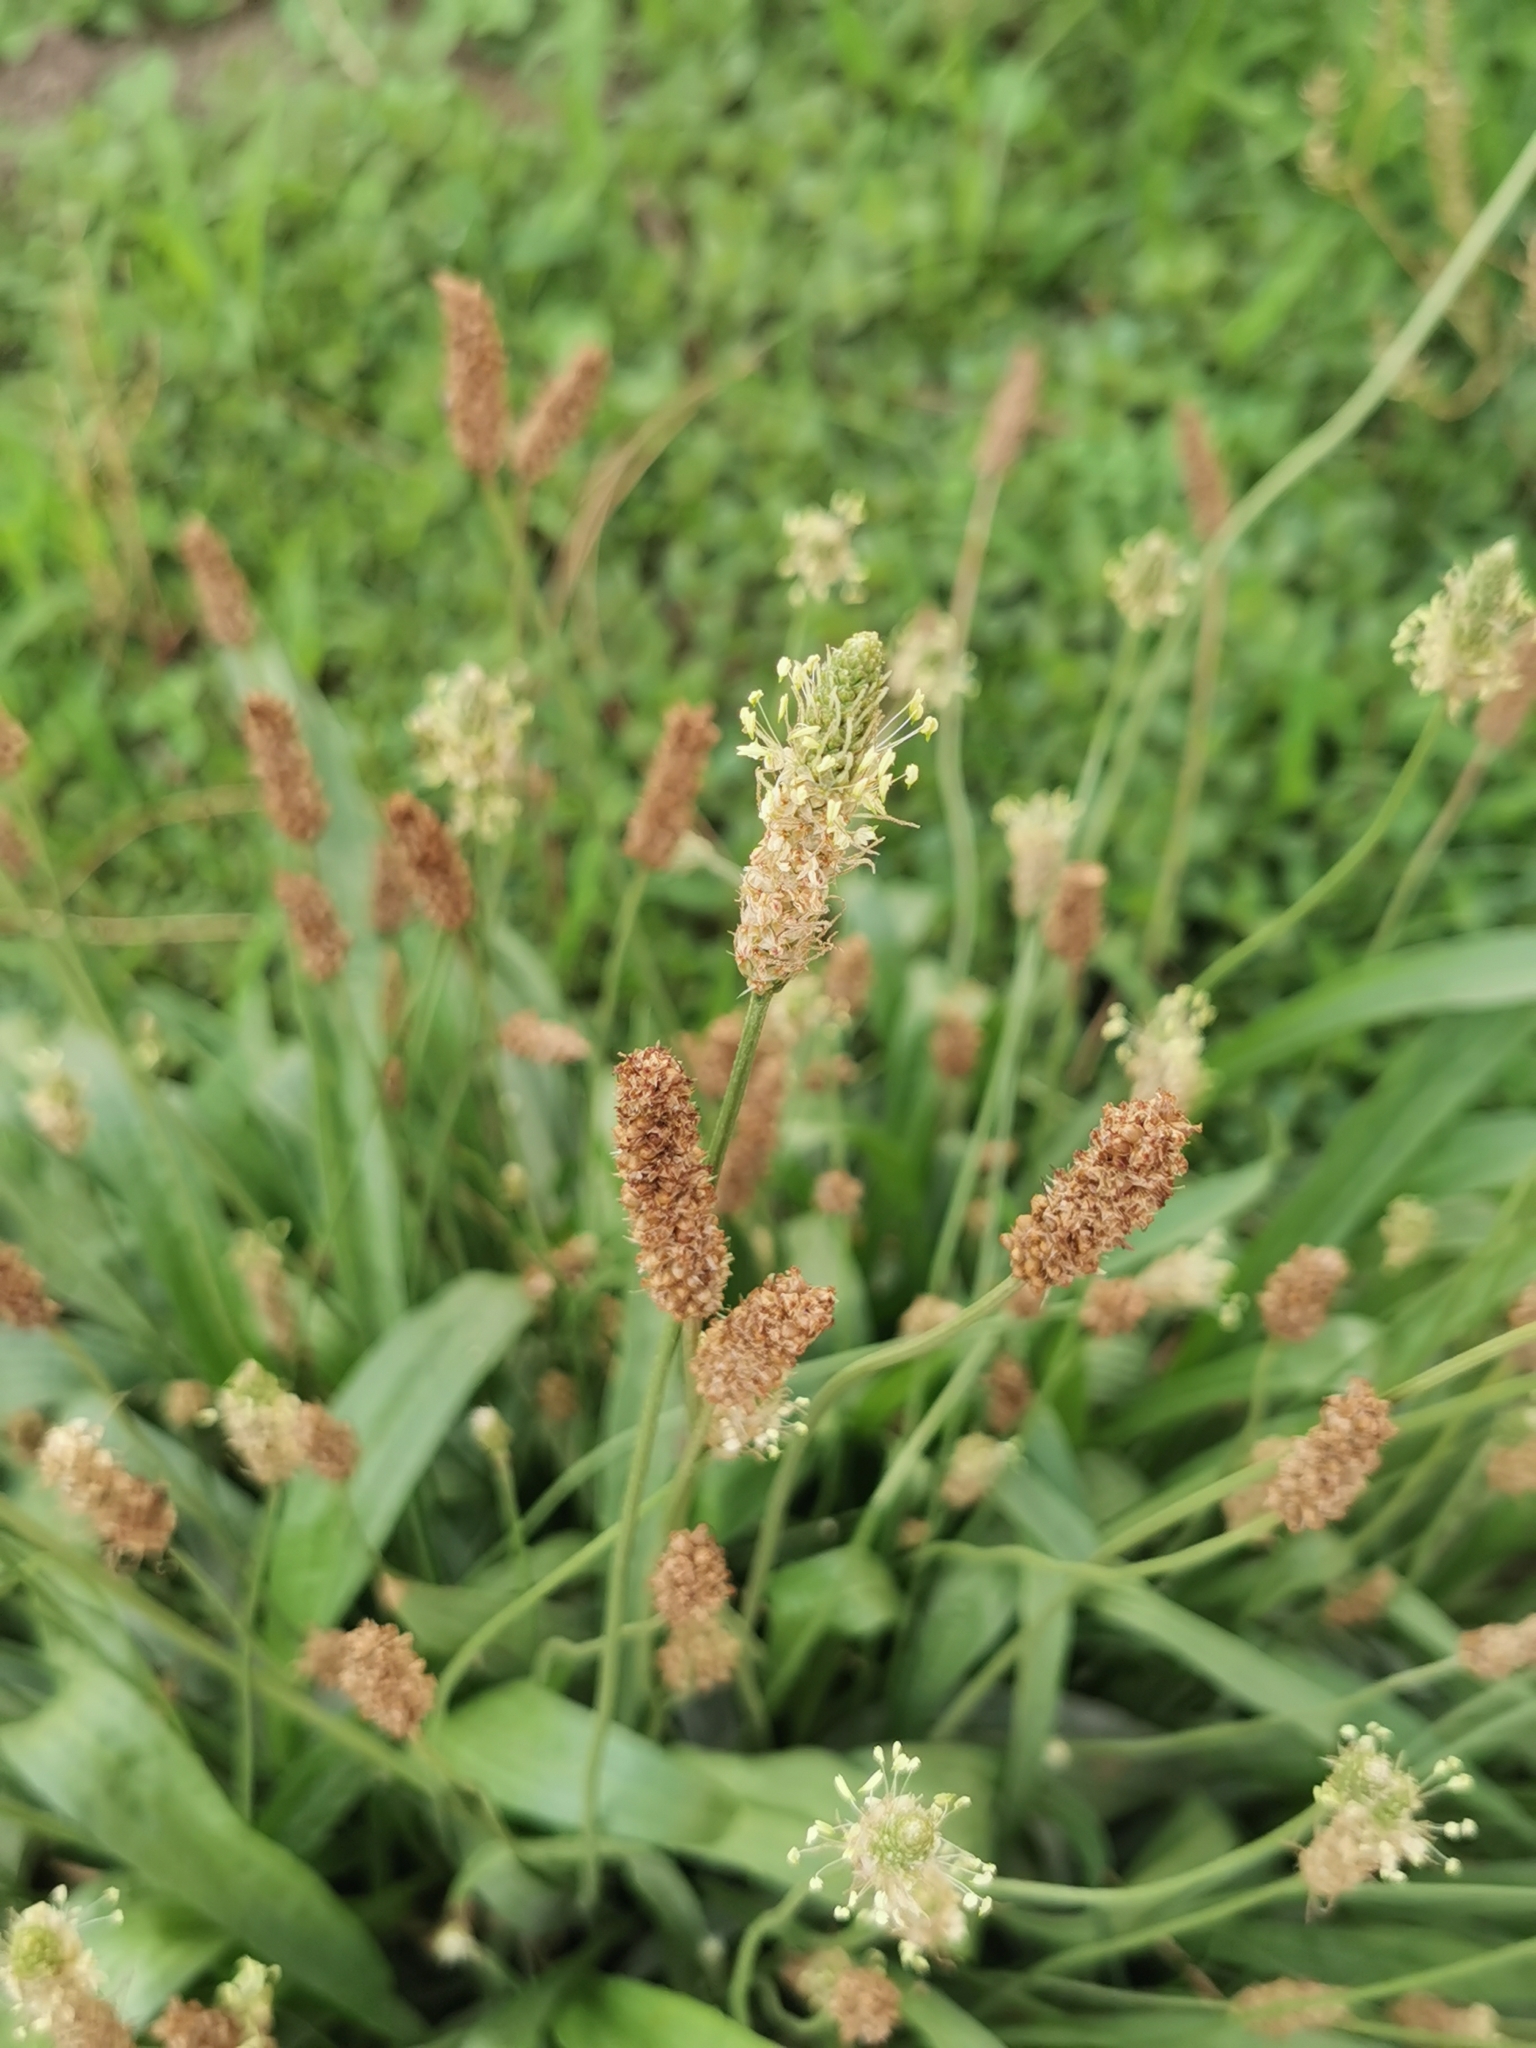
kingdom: Plantae
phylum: Tracheophyta
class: Magnoliopsida
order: Lamiales
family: Plantaginaceae
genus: Plantago
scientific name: Plantago lanceolata
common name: Ribwort plantain
